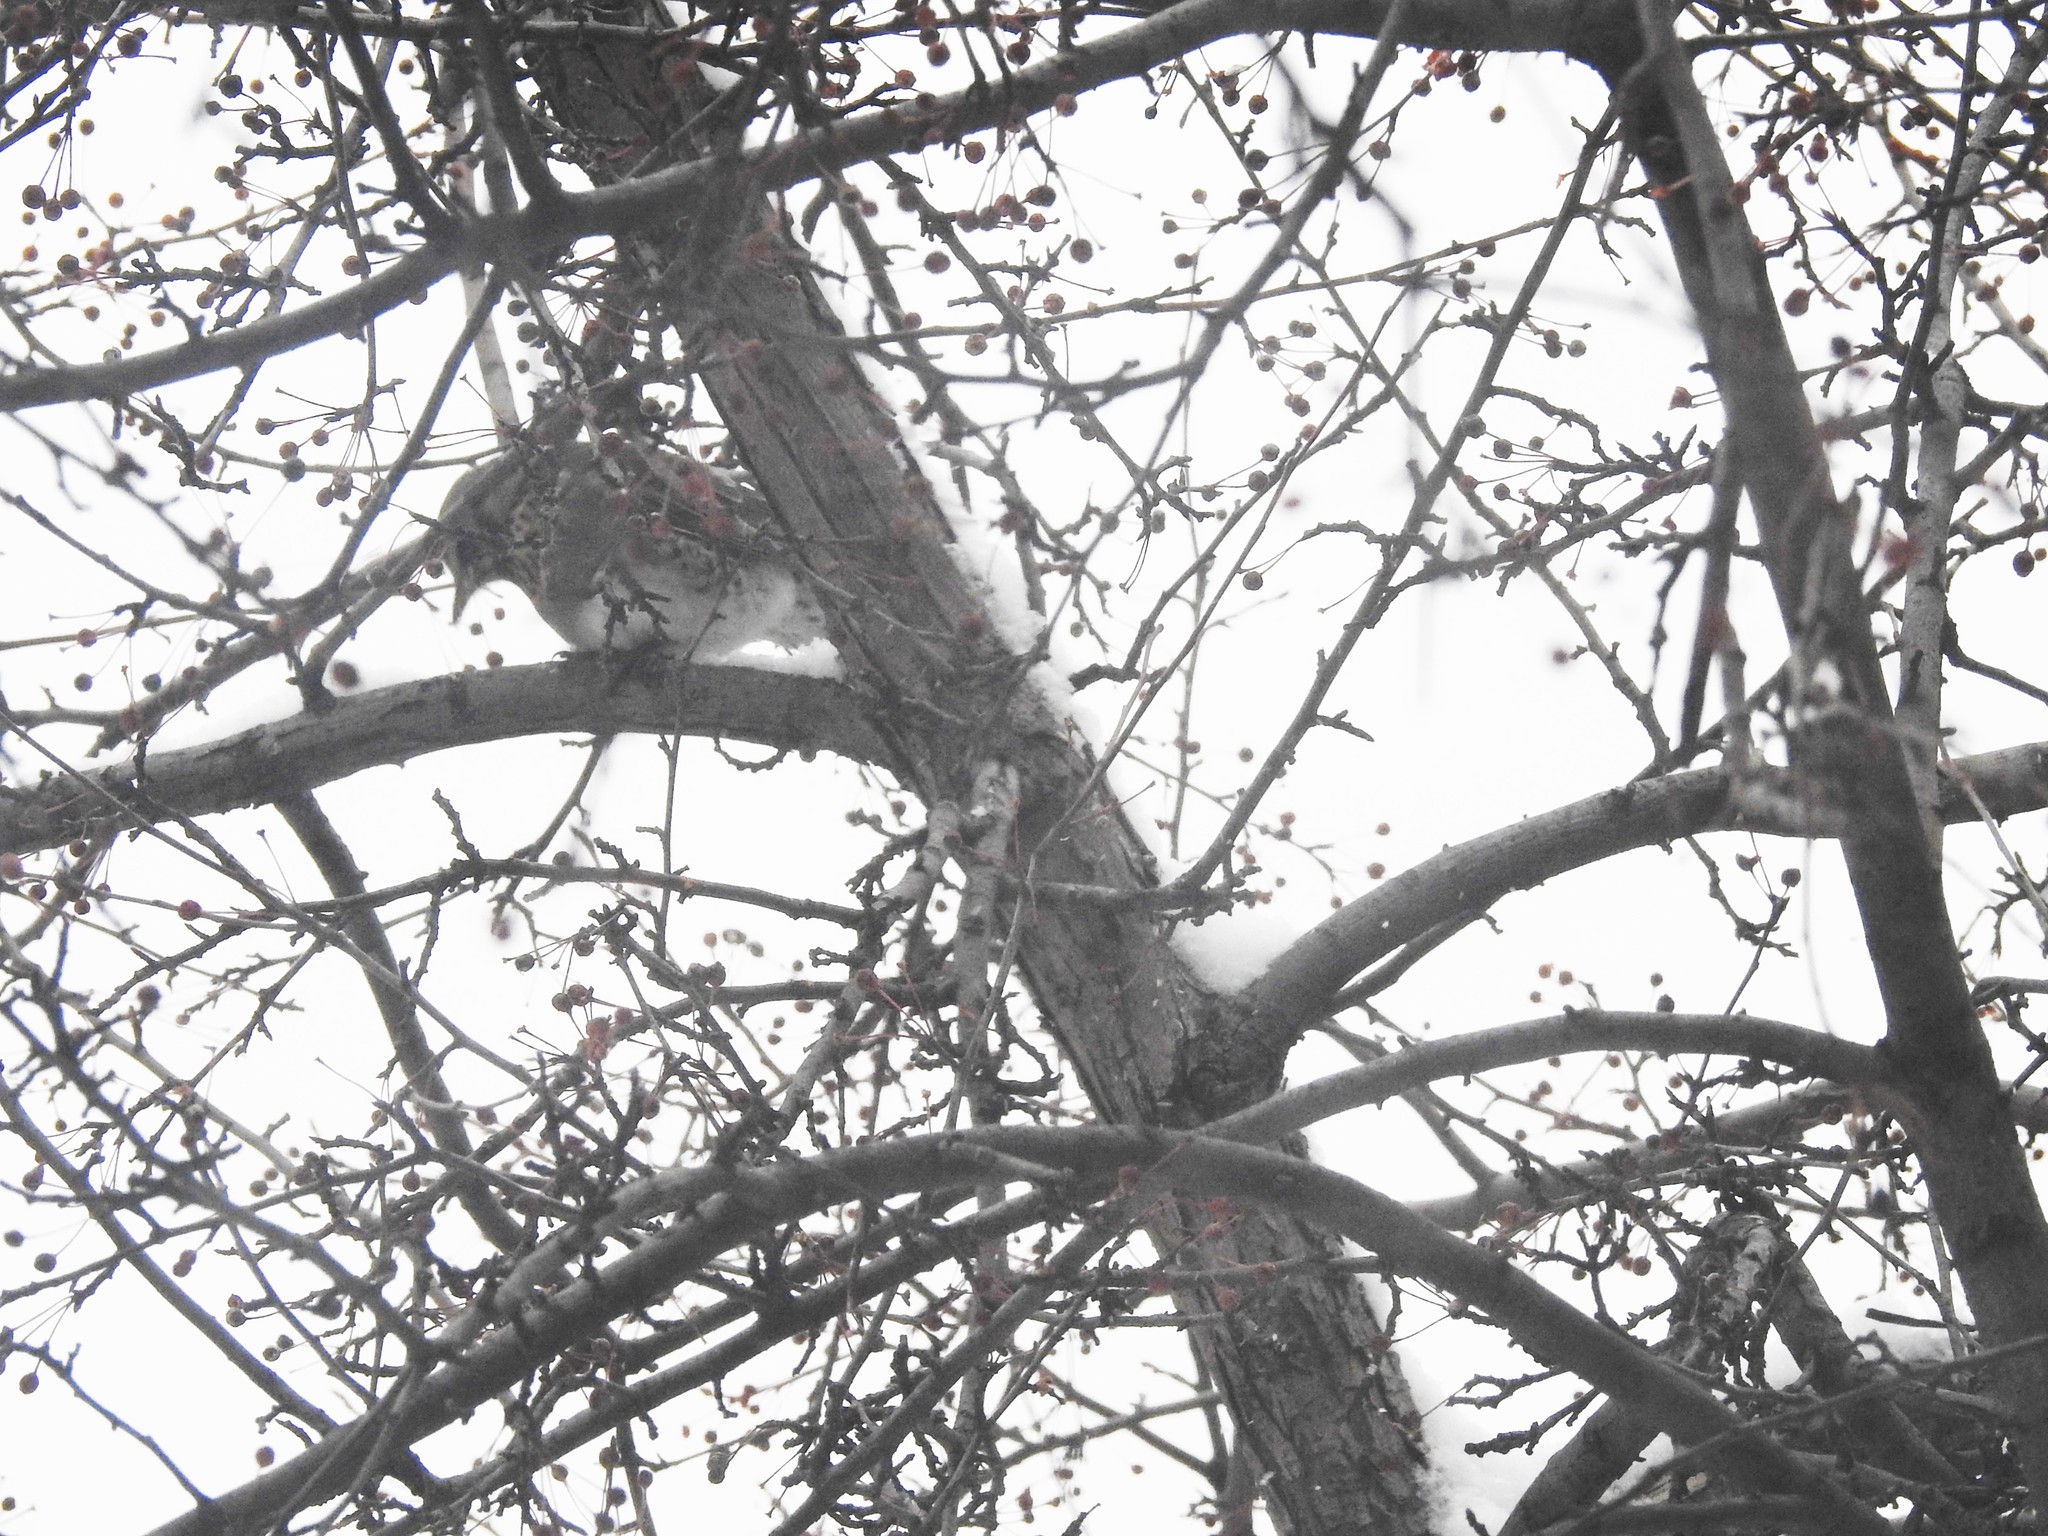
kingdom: Animalia
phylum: Chordata
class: Aves
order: Passeriformes
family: Turdidae
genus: Turdus
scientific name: Turdus pilaris
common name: Fieldfare
